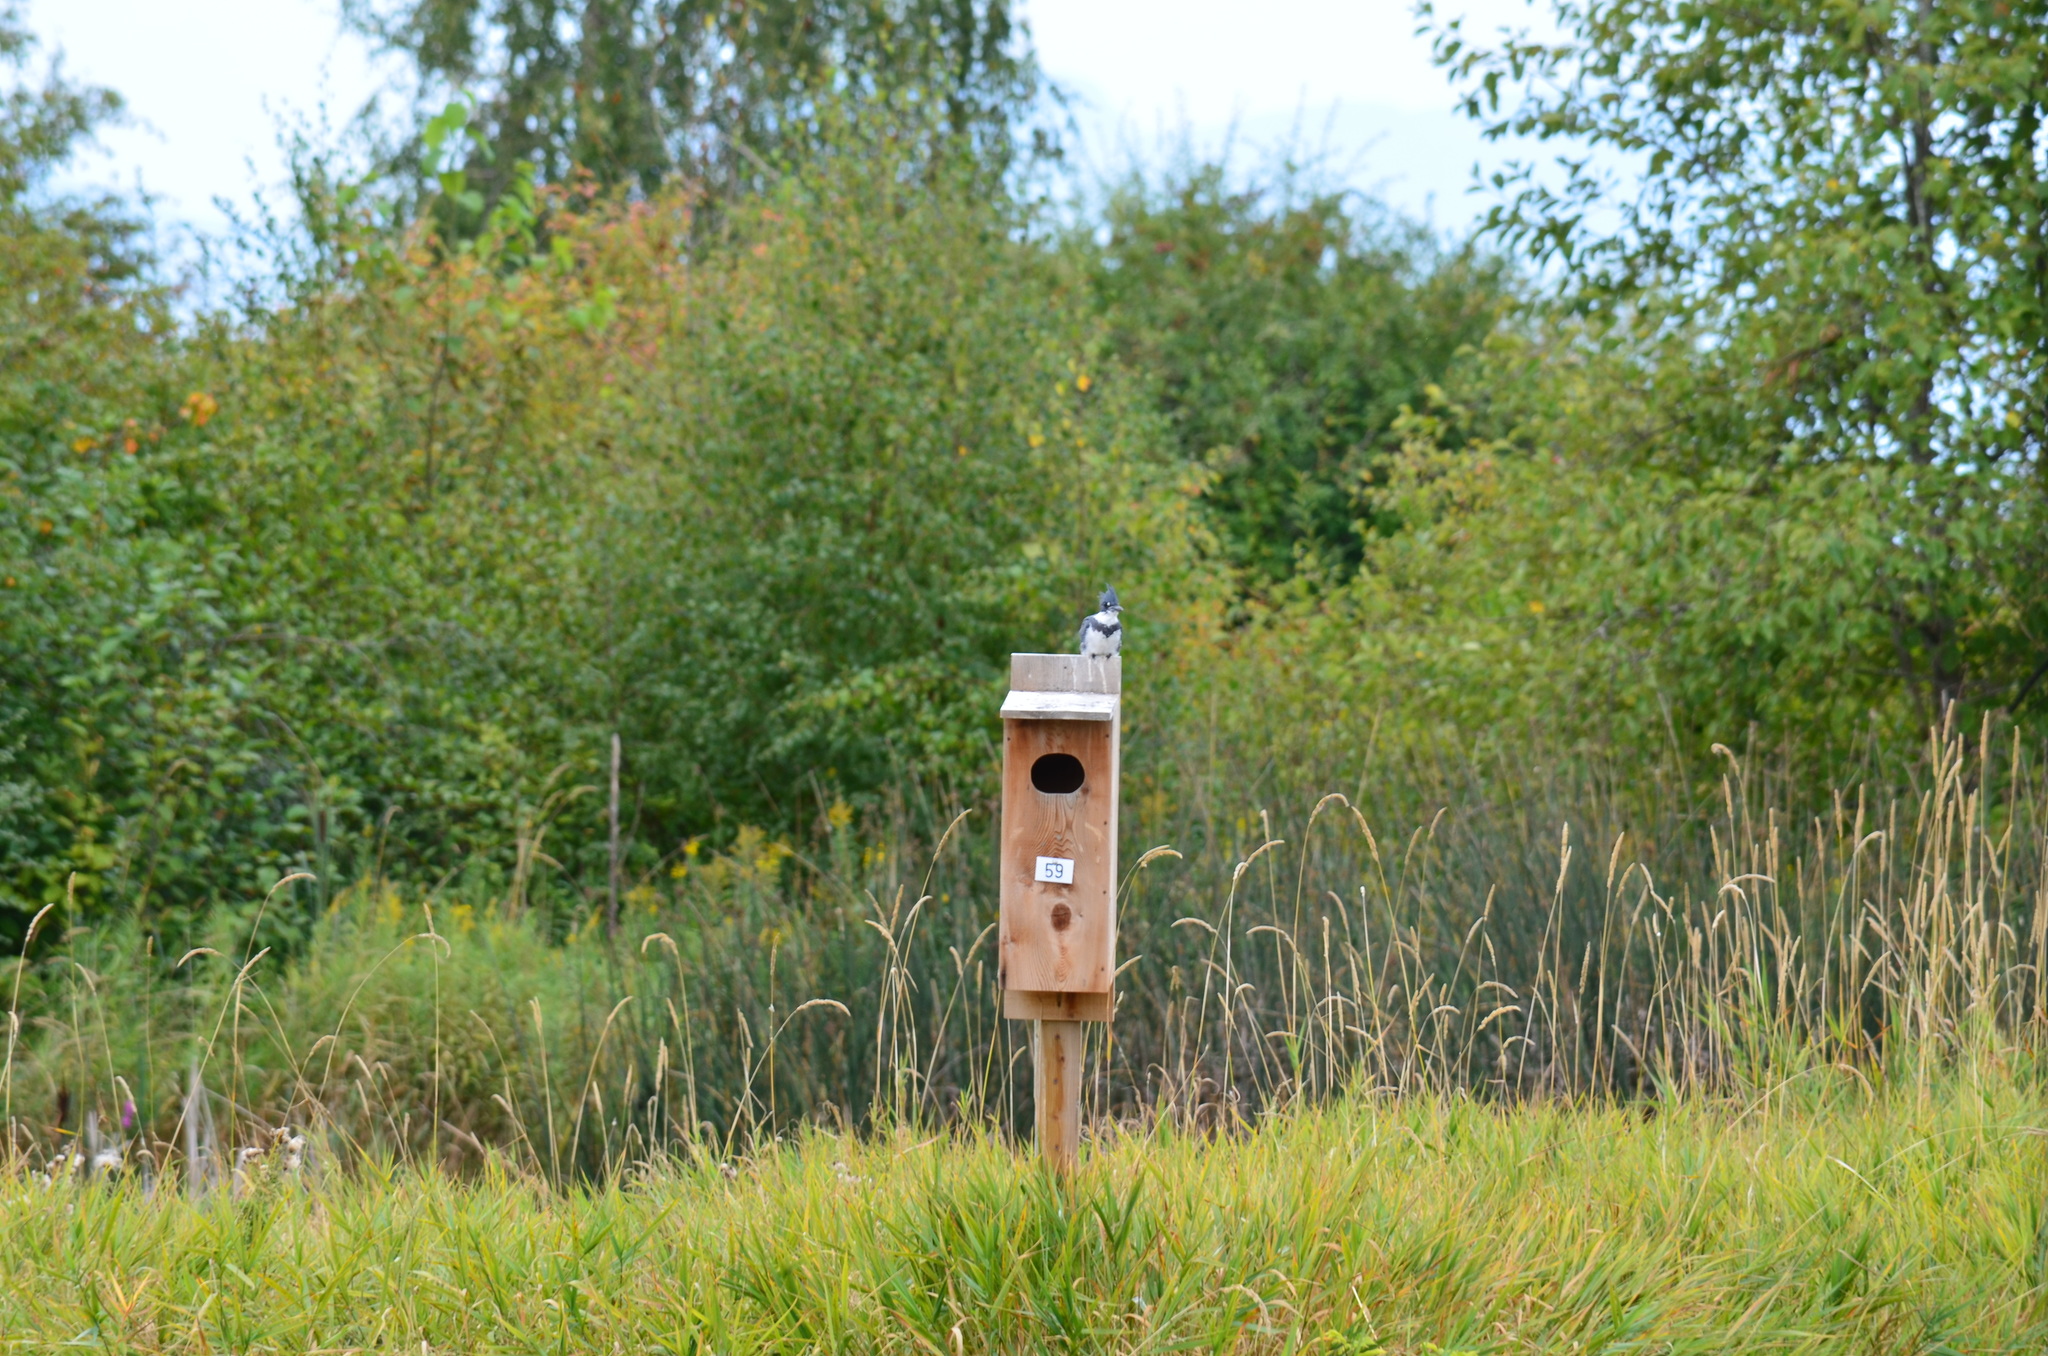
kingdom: Animalia
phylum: Chordata
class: Aves
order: Coraciiformes
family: Alcedinidae
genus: Megaceryle
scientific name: Megaceryle alcyon
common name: Belted kingfisher
